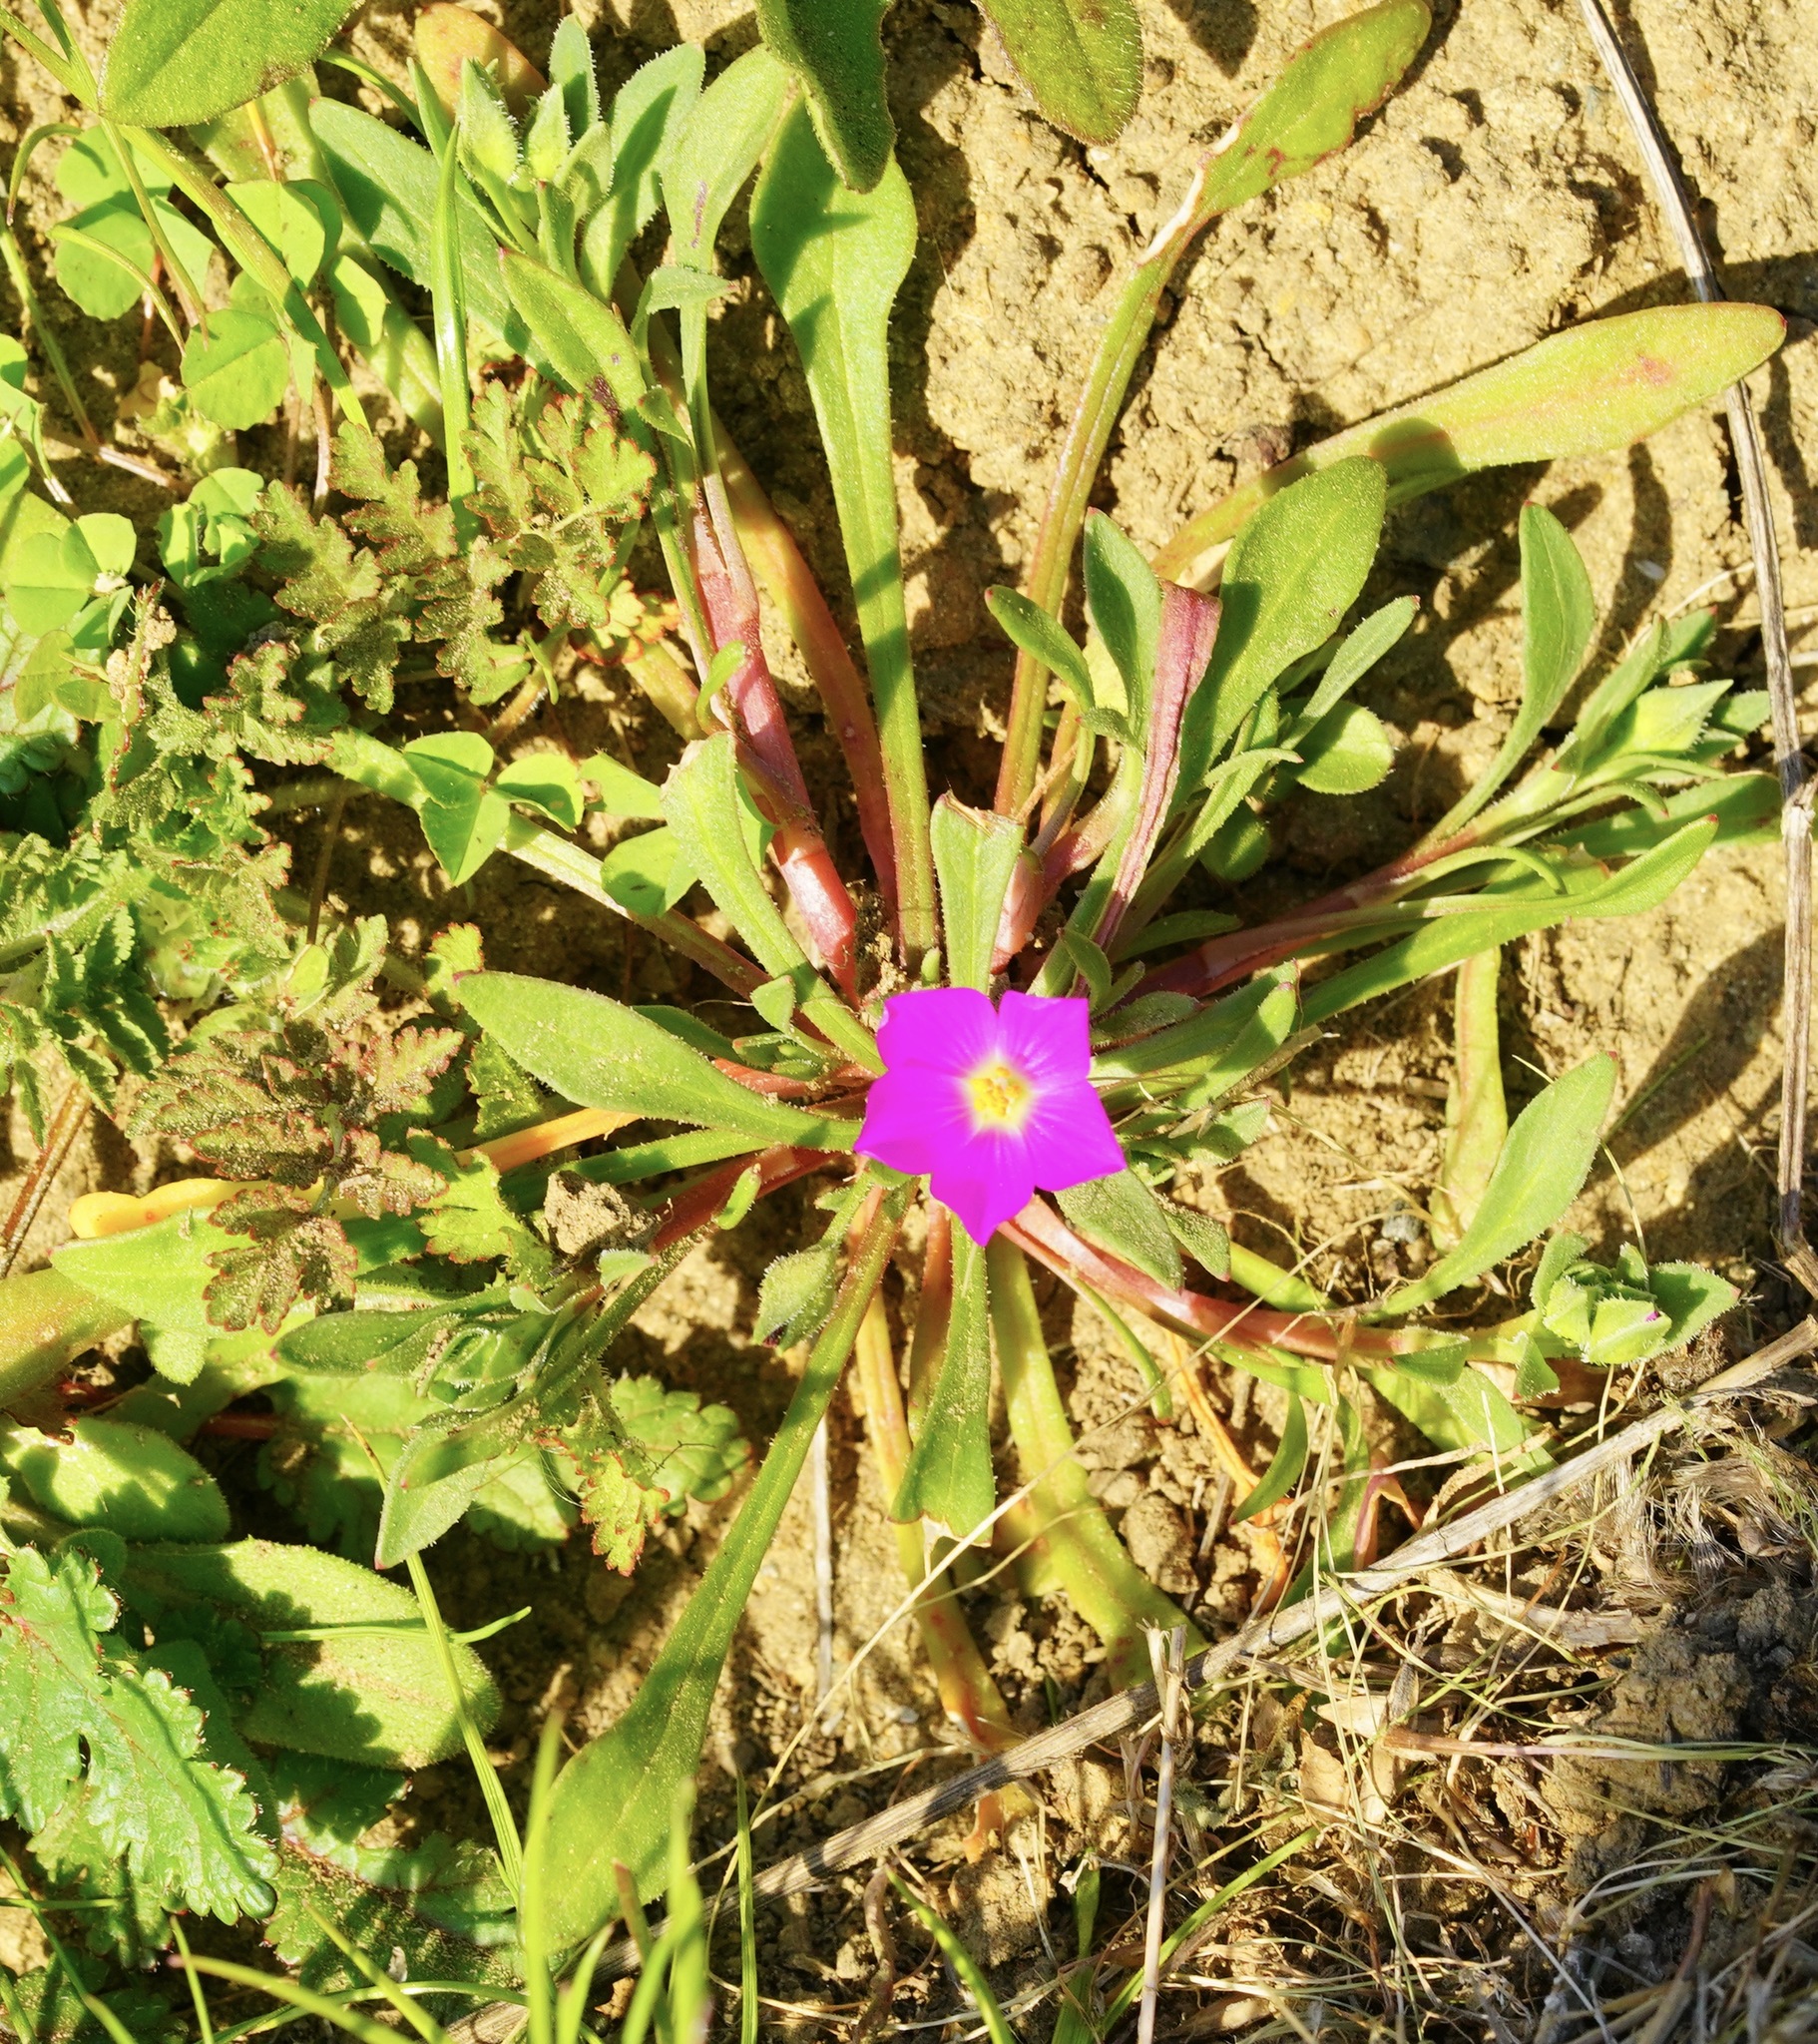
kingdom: Plantae
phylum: Tracheophyta
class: Magnoliopsida
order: Caryophyllales
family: Montiaceae
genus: Calandrinia
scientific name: Calandrinia menziesii
